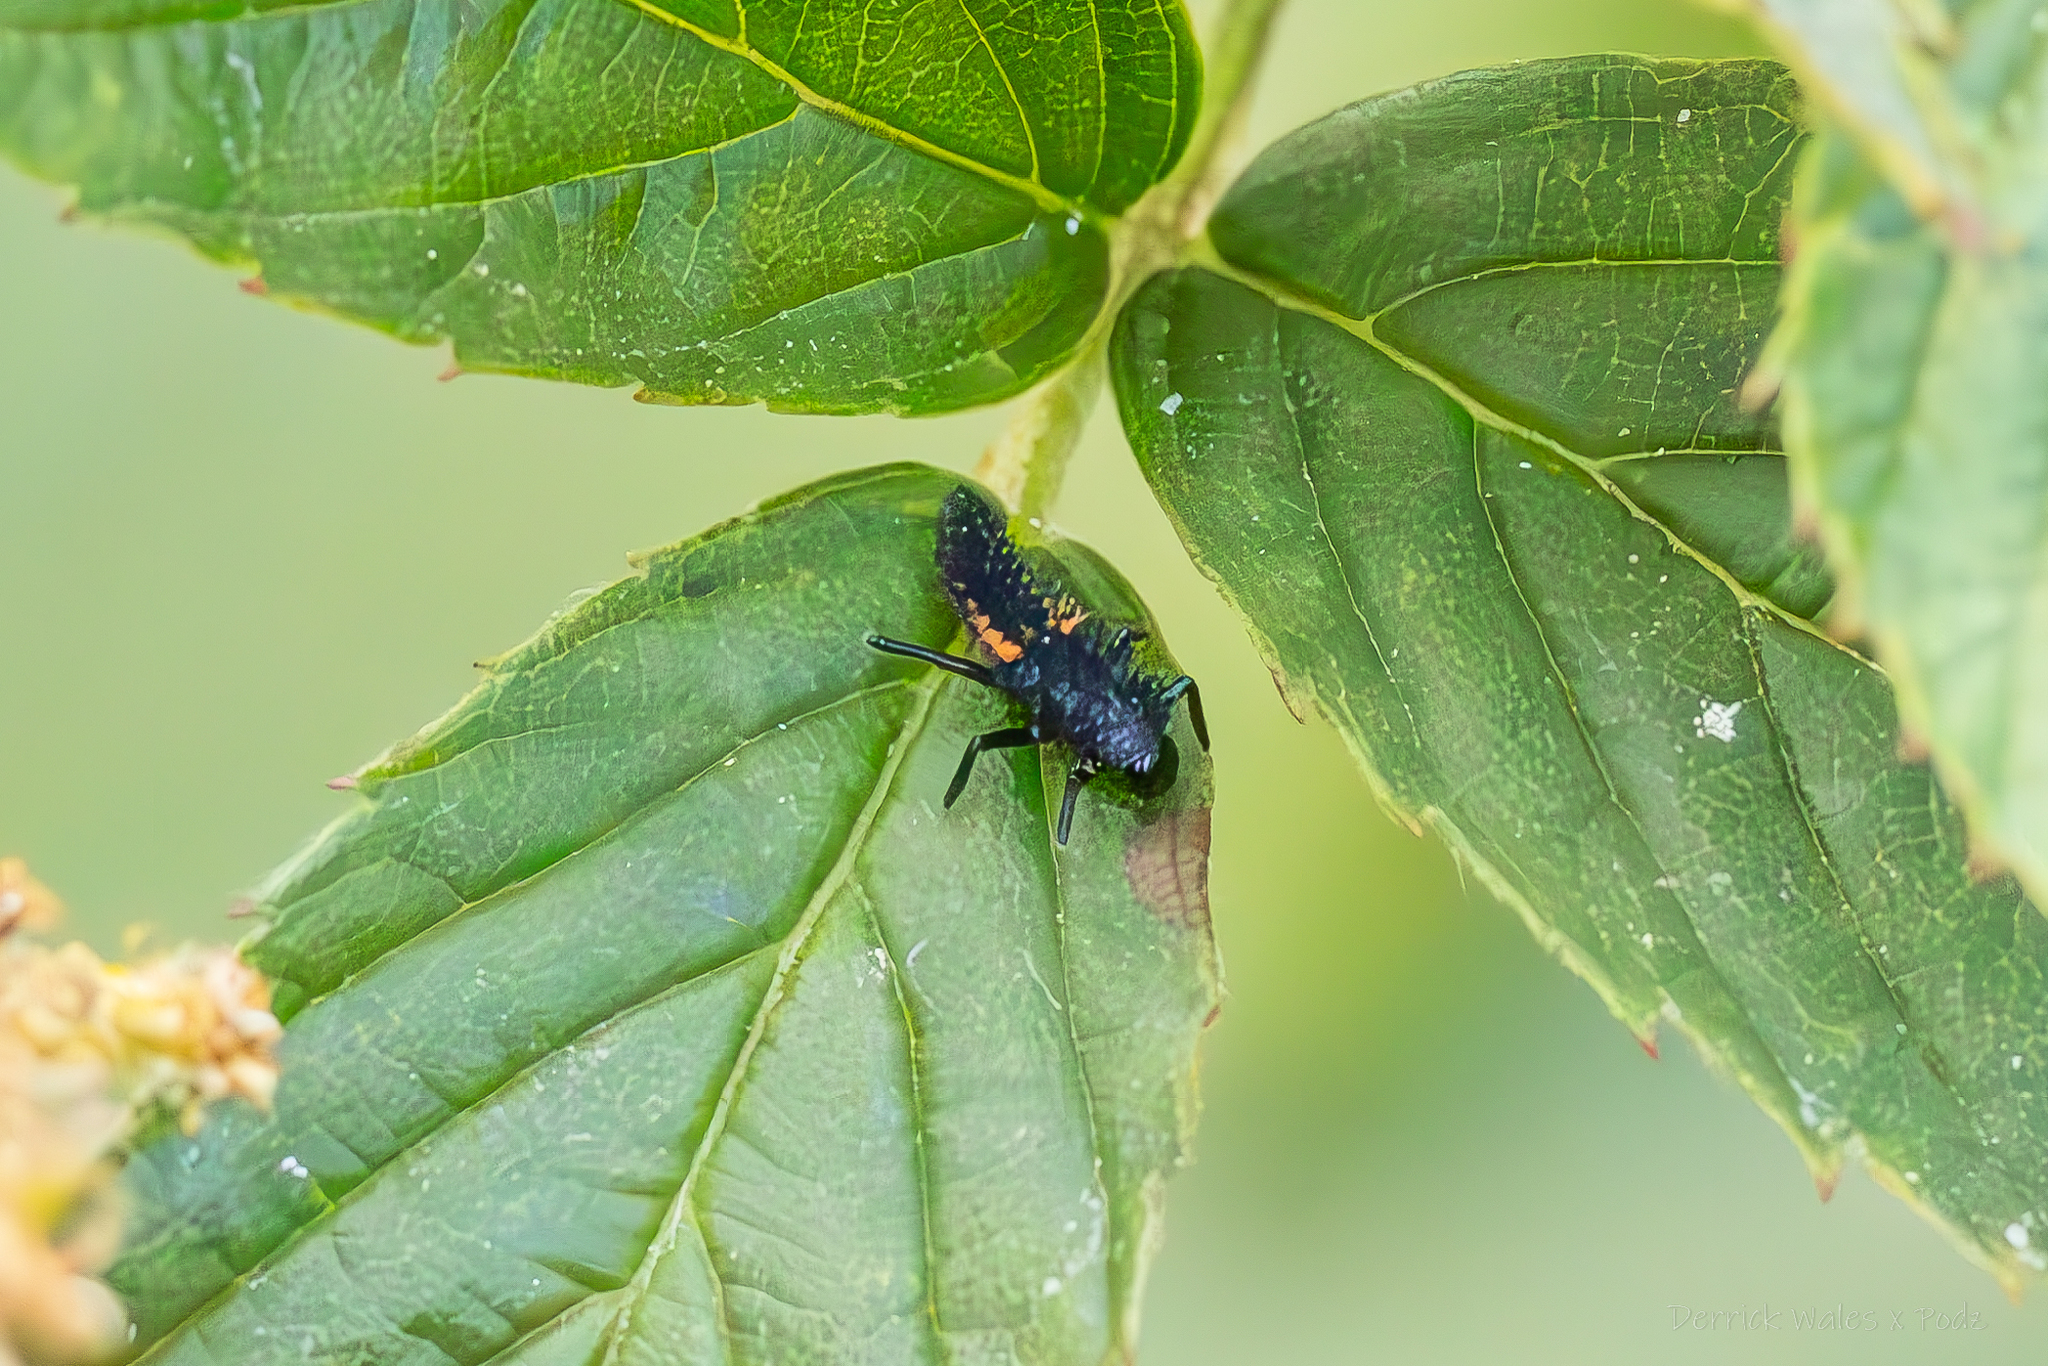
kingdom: Animalia
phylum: Arthropoda
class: Insecta
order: Coleoptera
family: Coccinellidae
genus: Harmonia
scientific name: Harmonia axyridis
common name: Harlequin ladybird
